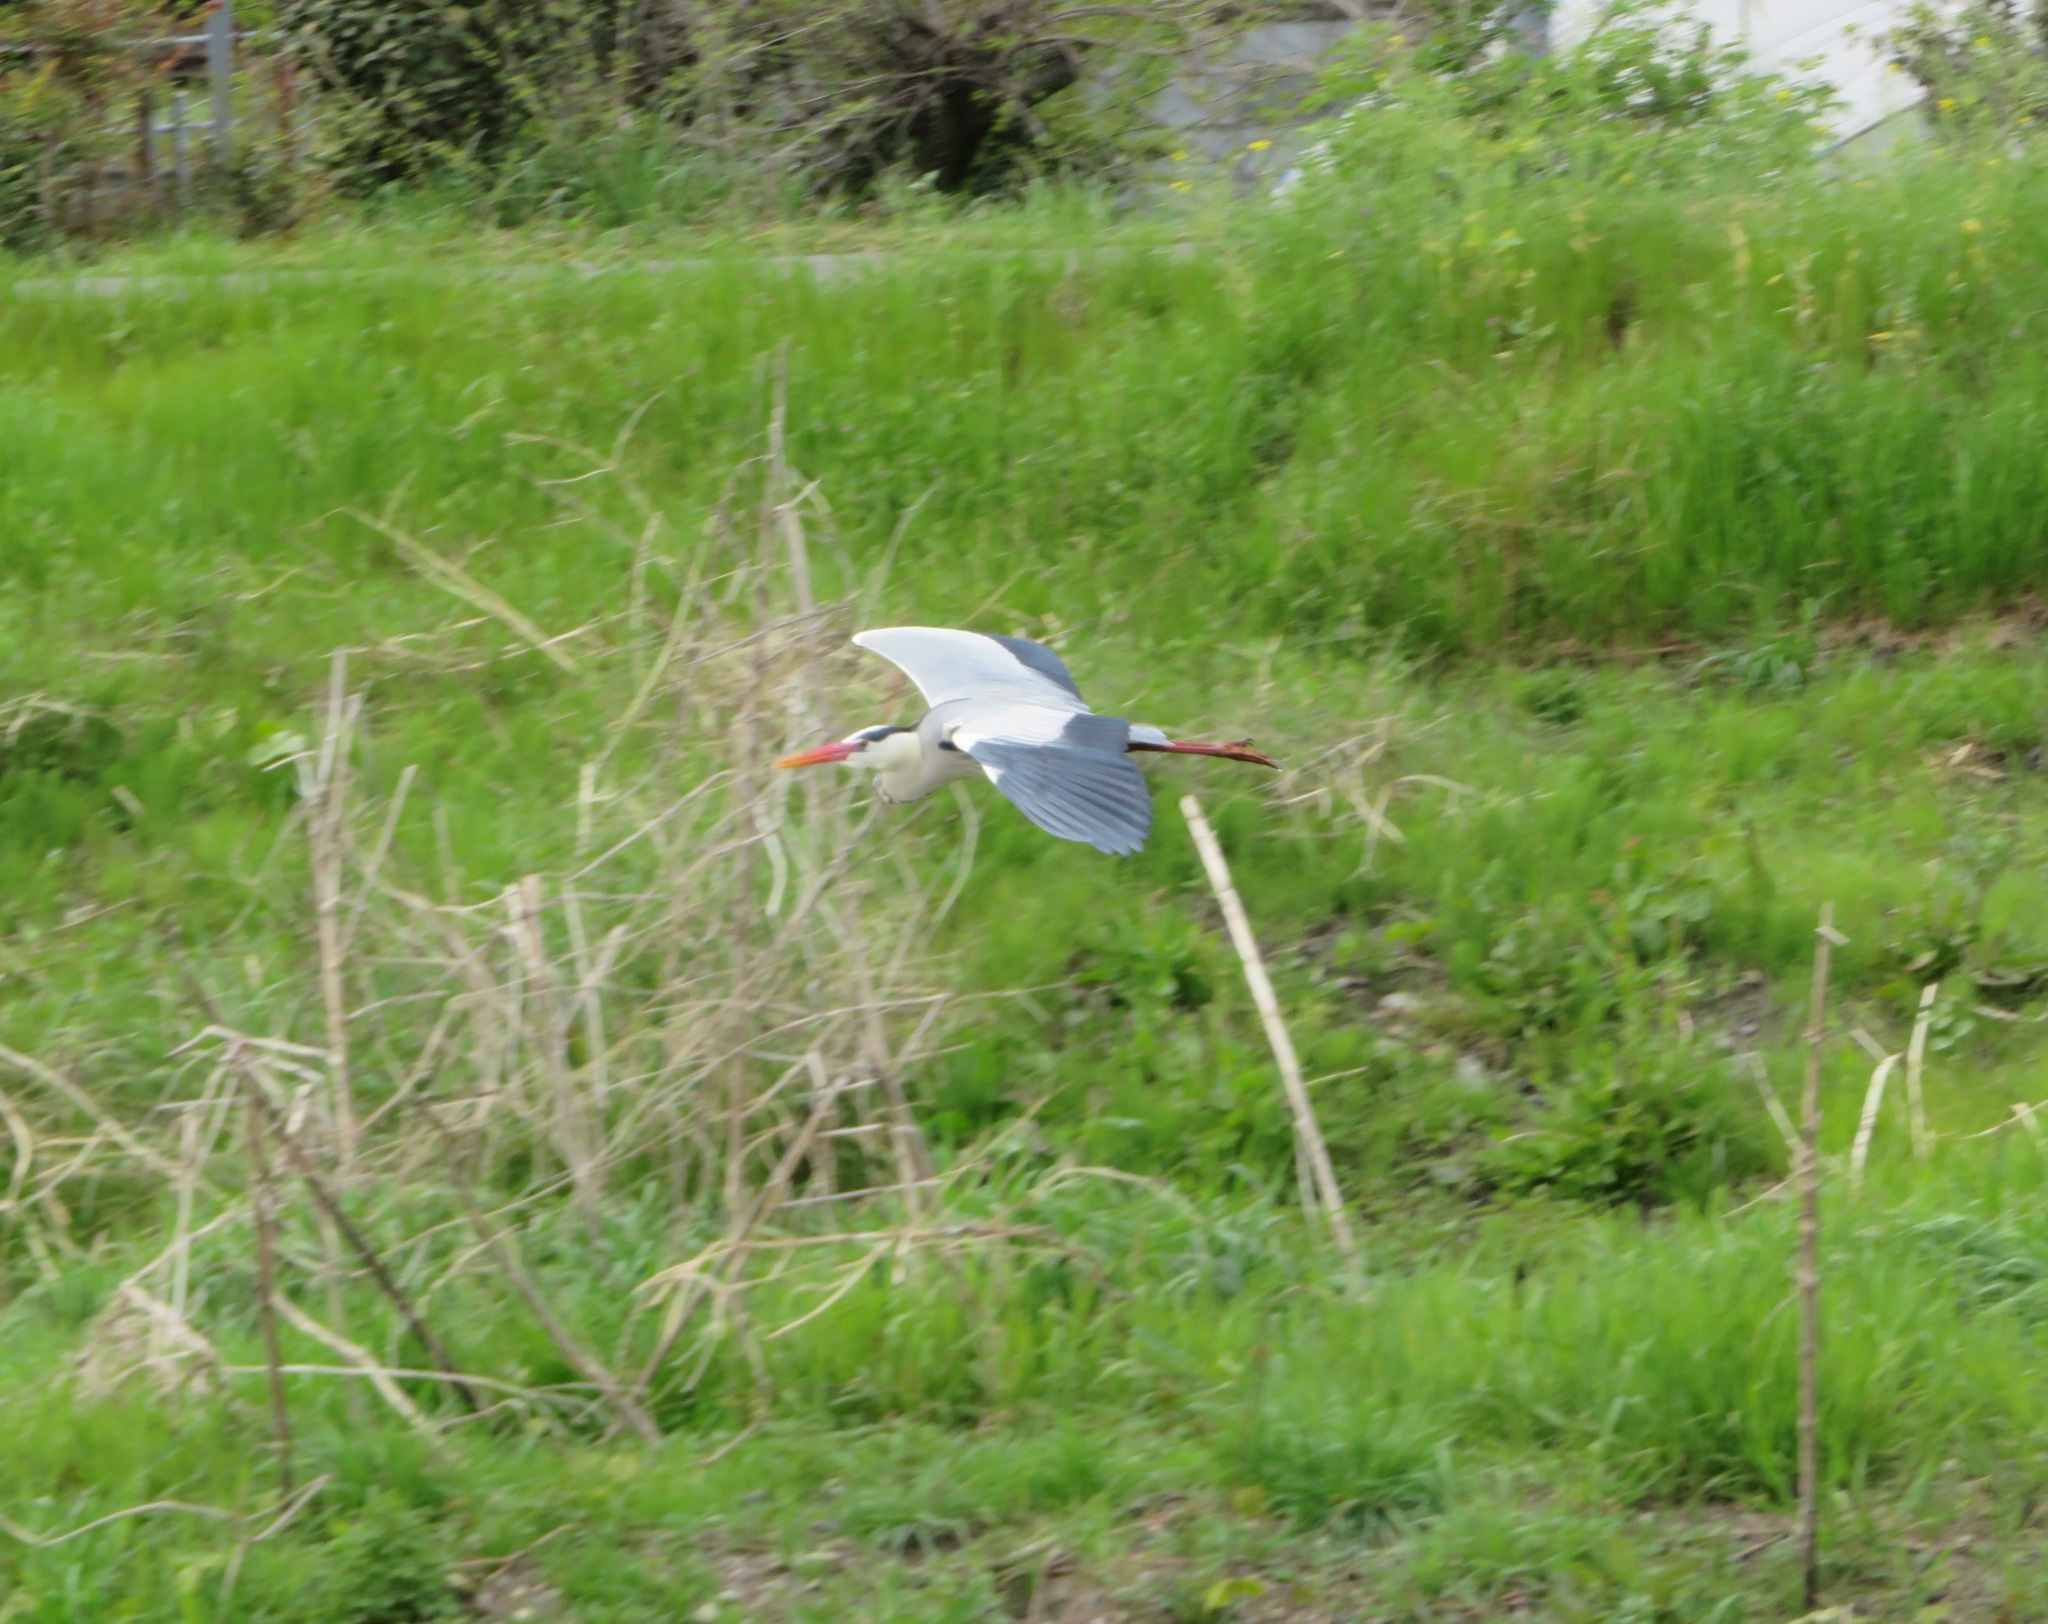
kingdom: Animalia
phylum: Chordata
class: Aves
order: Pelecaniformes
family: Ardeidae
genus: Ardea
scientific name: Ardea cinerea
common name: Grey heron
